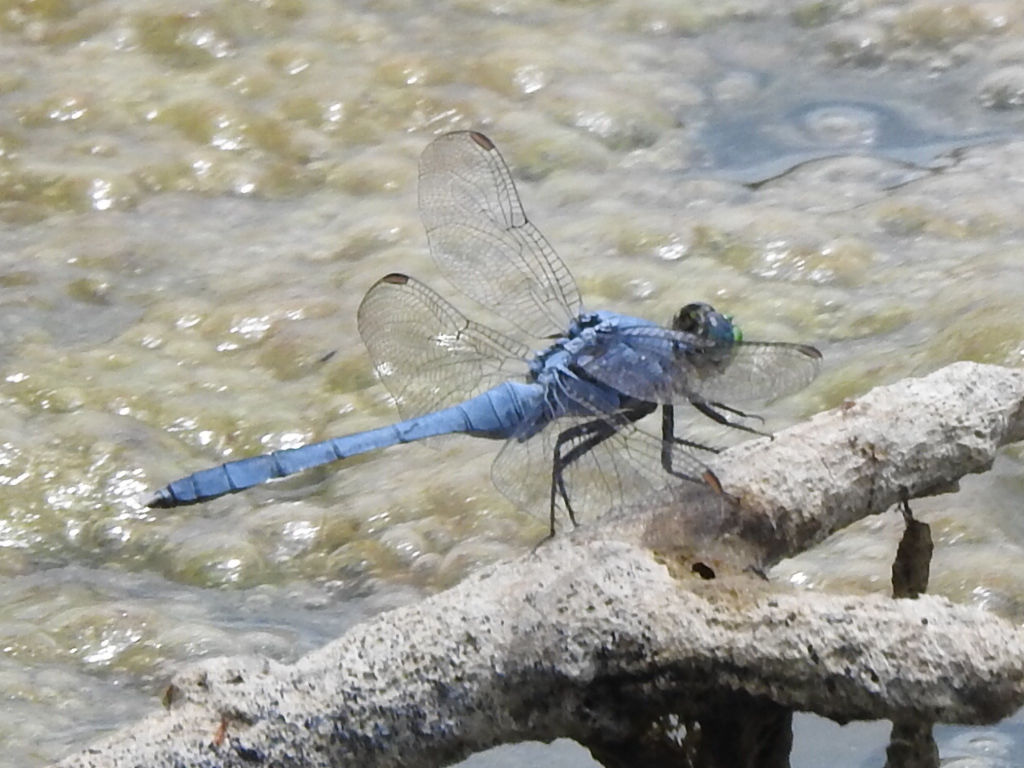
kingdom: Animalia
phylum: Arthropoda
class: Insecta
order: Odonata
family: Libellulidae
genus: Erythemis
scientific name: Erythemis simplicicollis
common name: Eastern pondhawk
